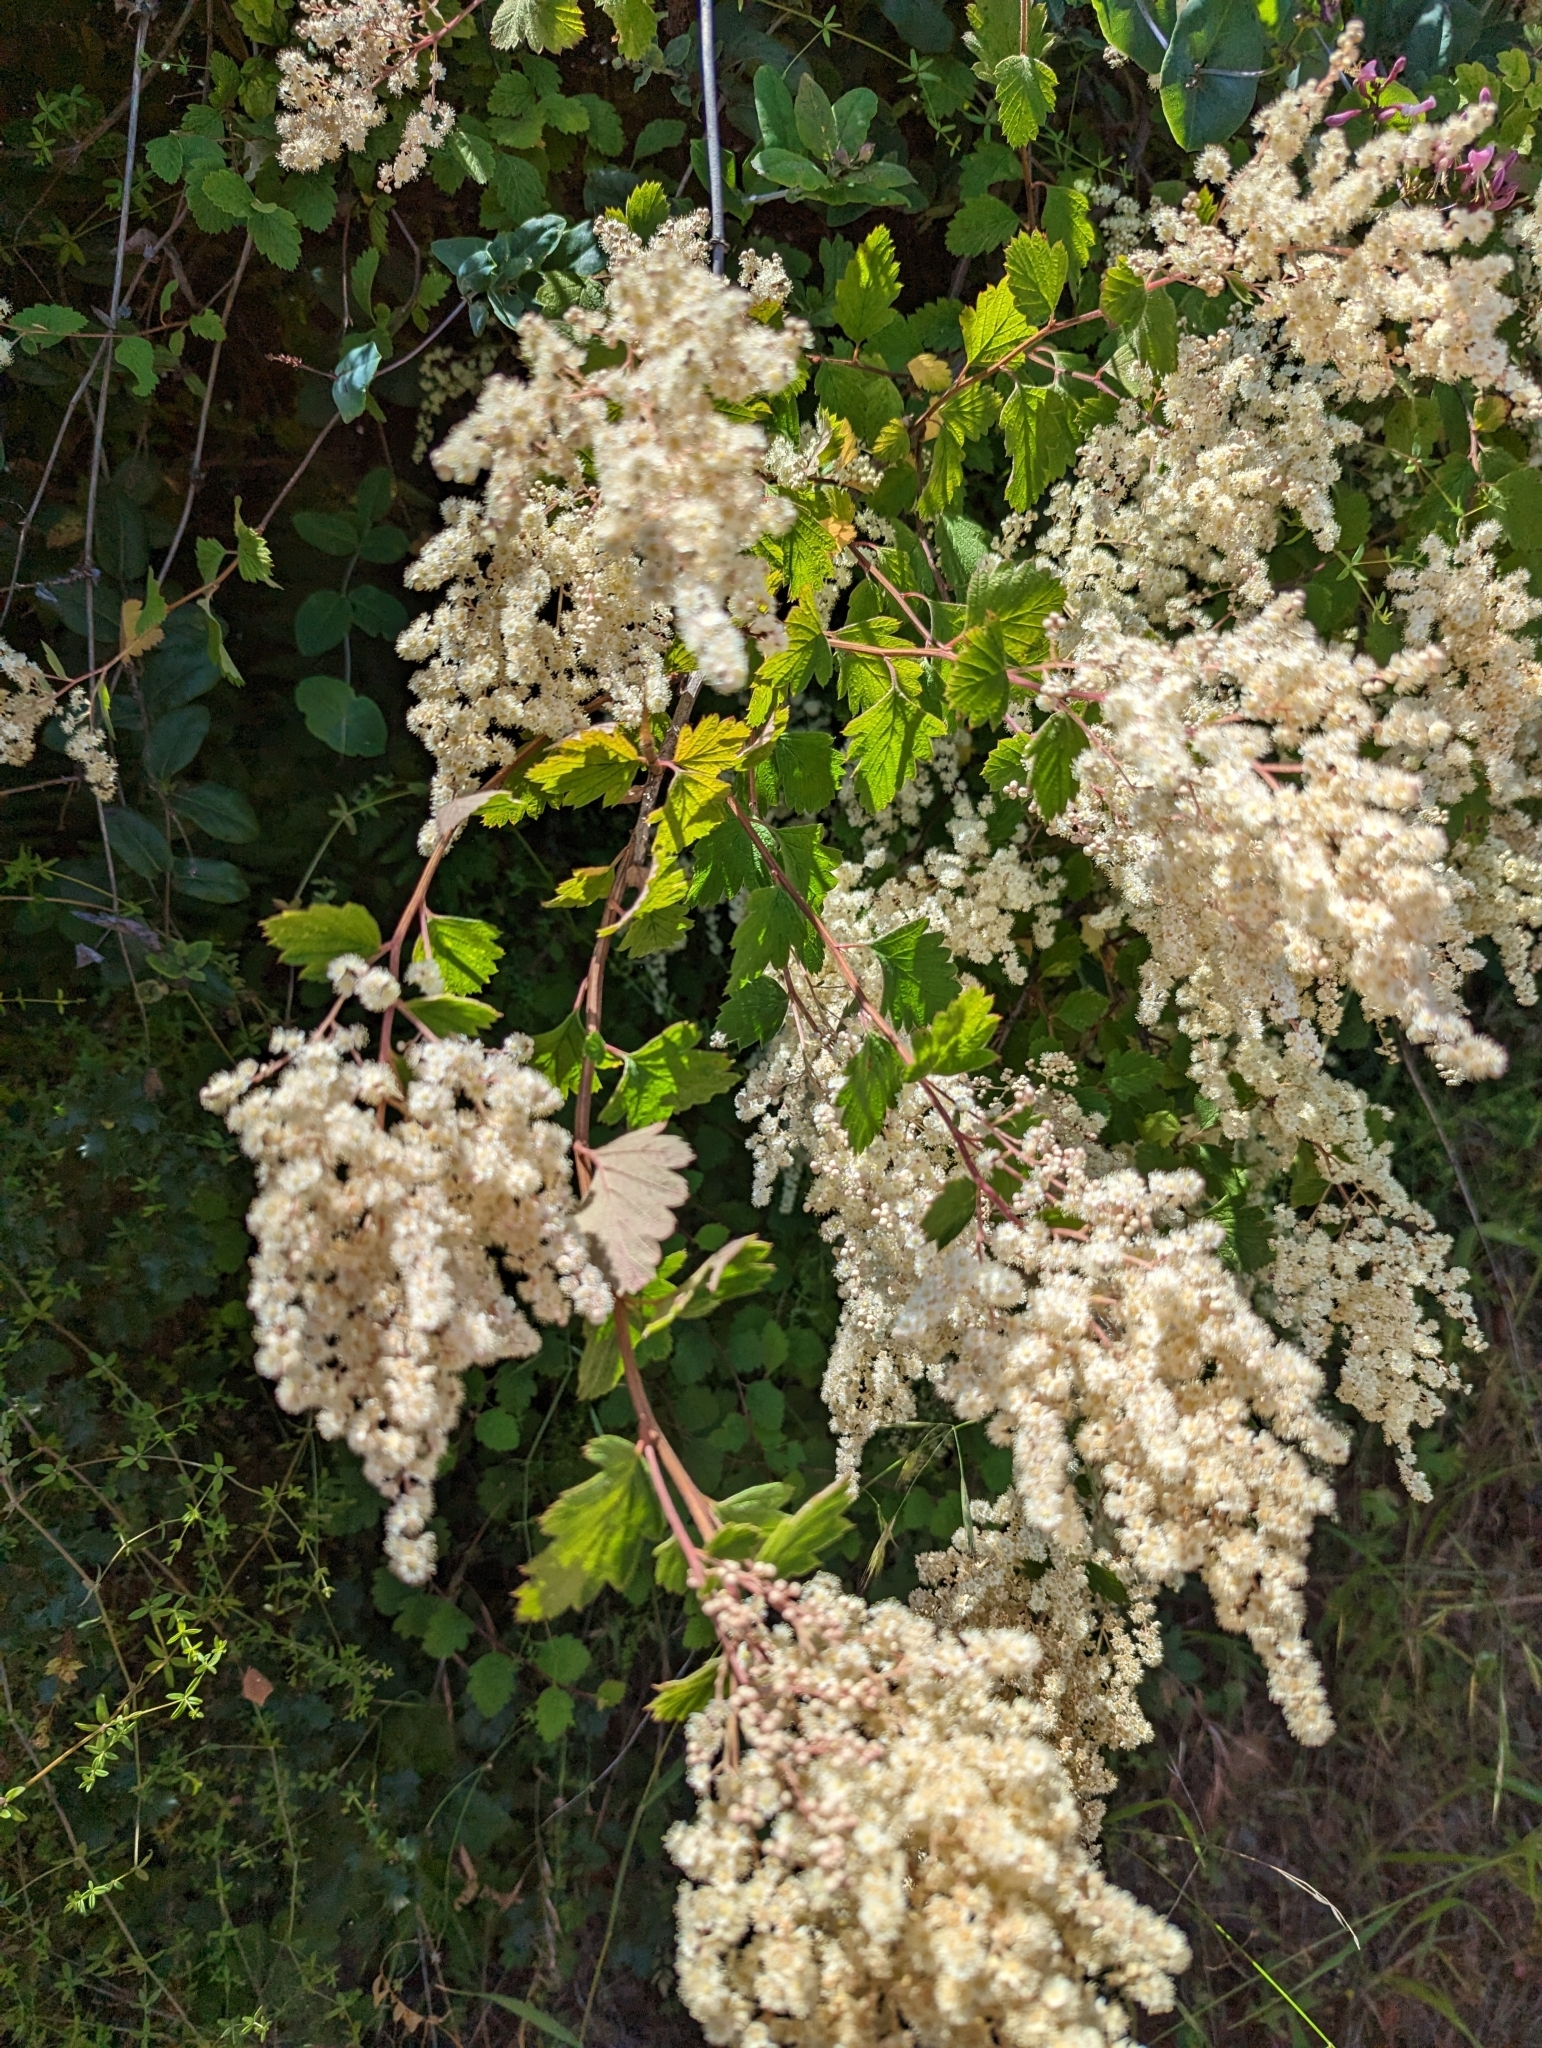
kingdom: Plantae
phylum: Tracheophyta
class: Magnoliopsida
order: Rosales
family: Rosaceae
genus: Holodiscus
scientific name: Holodiscus discolor
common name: Oceanspray
